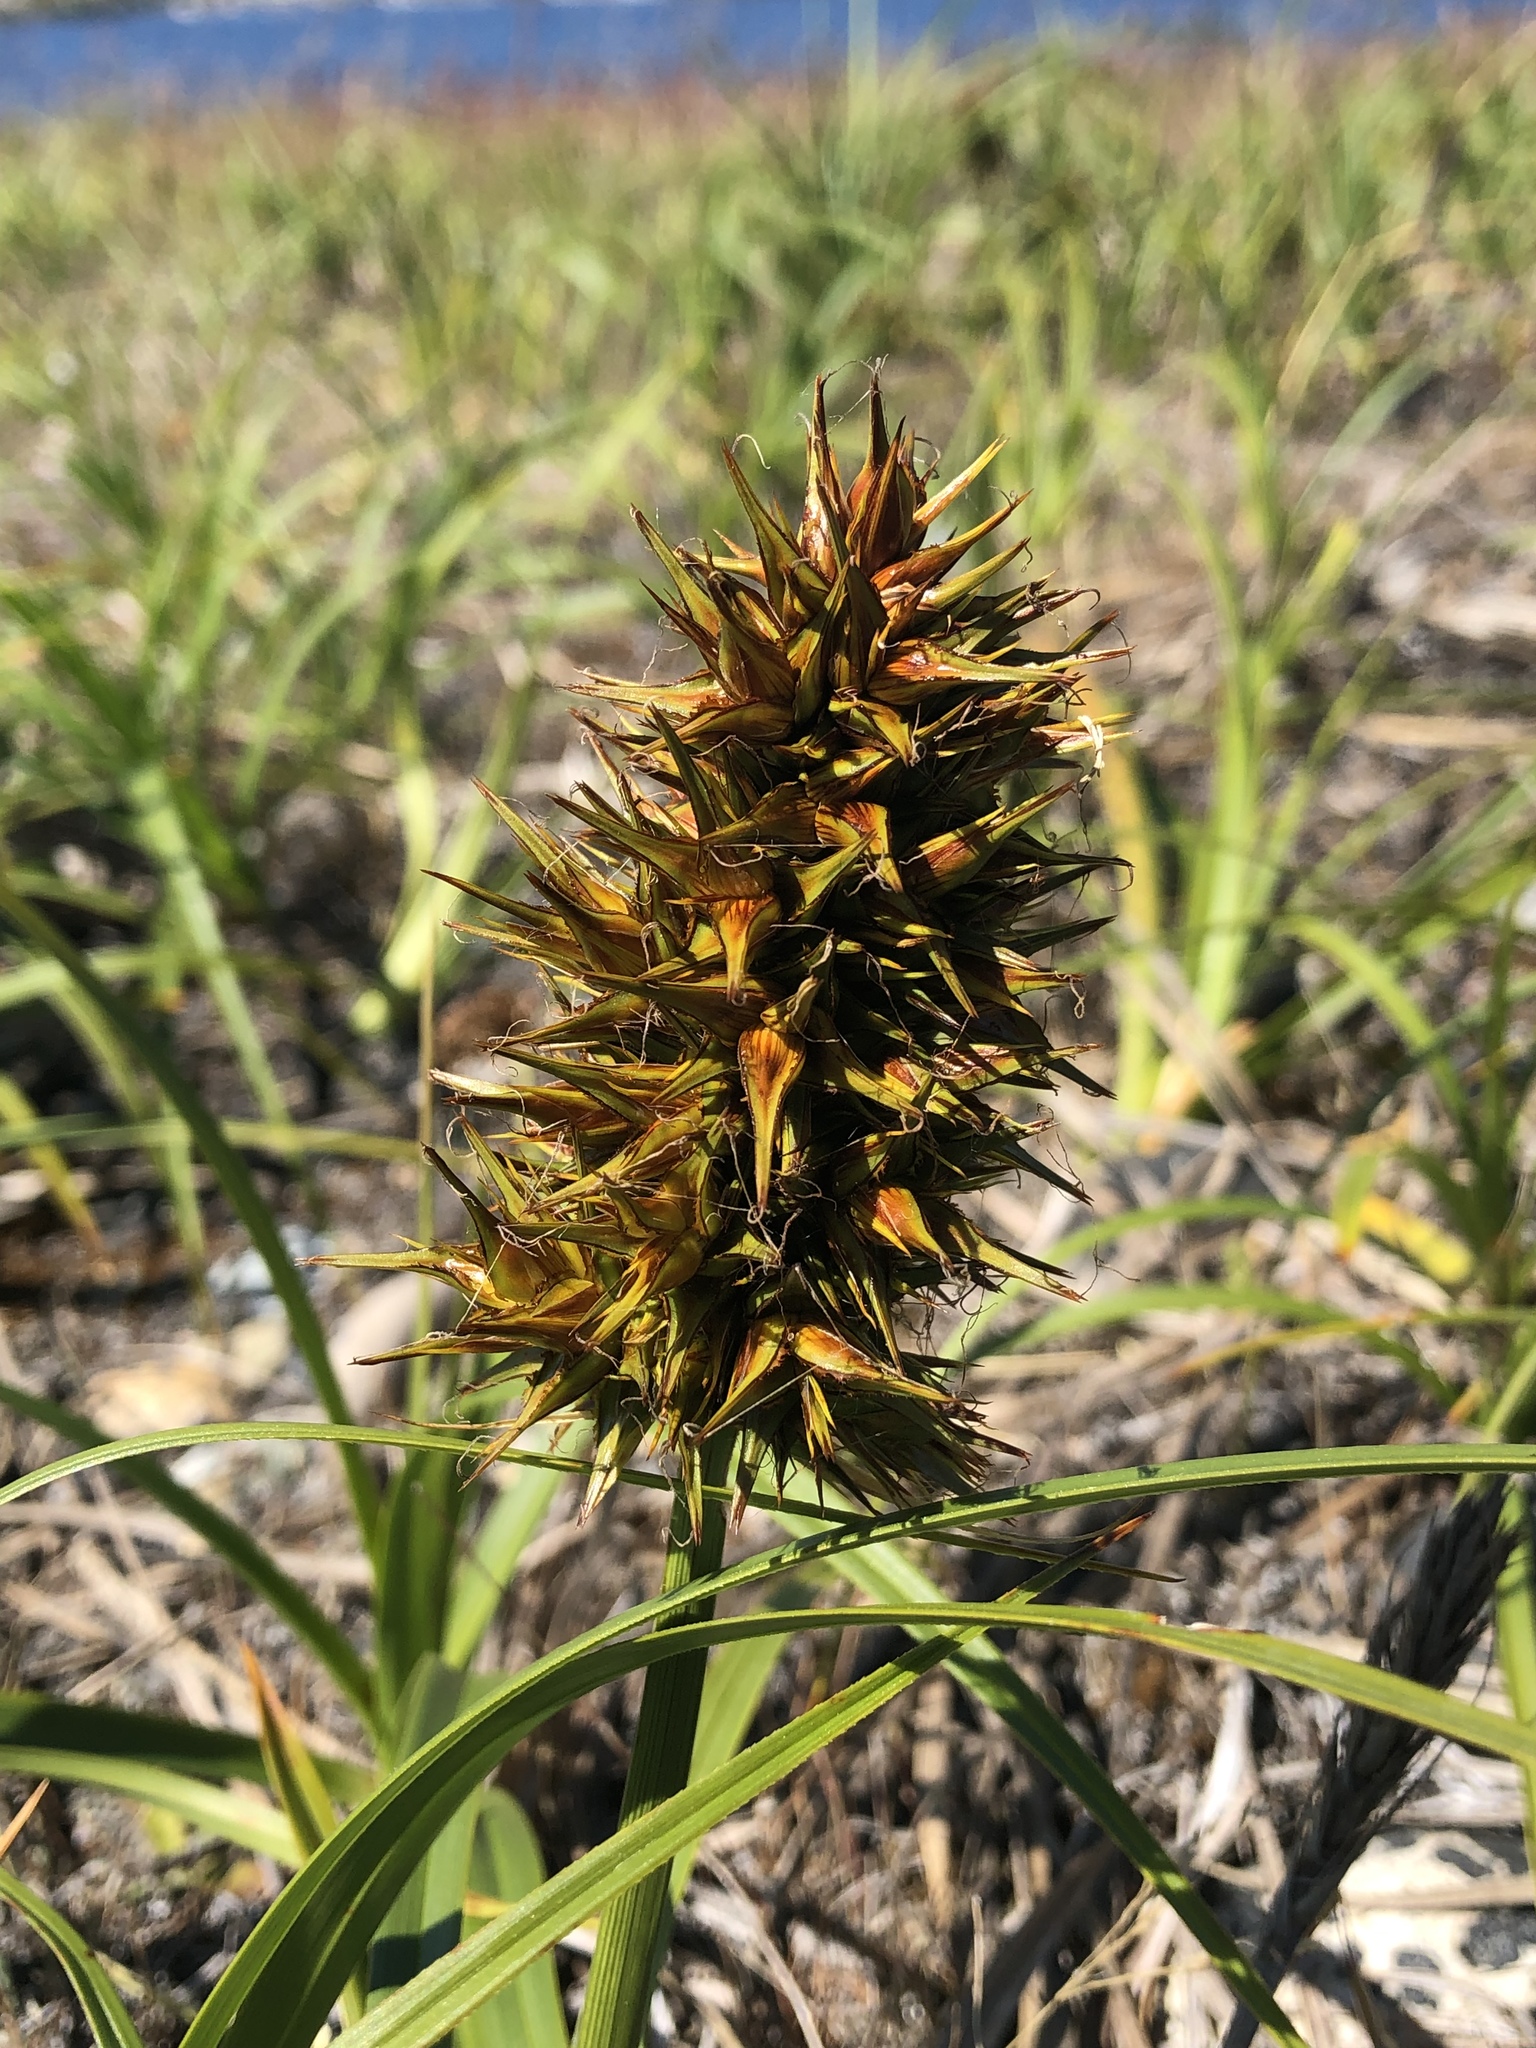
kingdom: Plantae
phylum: Tracheophyta
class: Liliopsida
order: Poales
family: Cyperaceae
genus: Carex
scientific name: Carex macrocephala
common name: Large-head sedge
